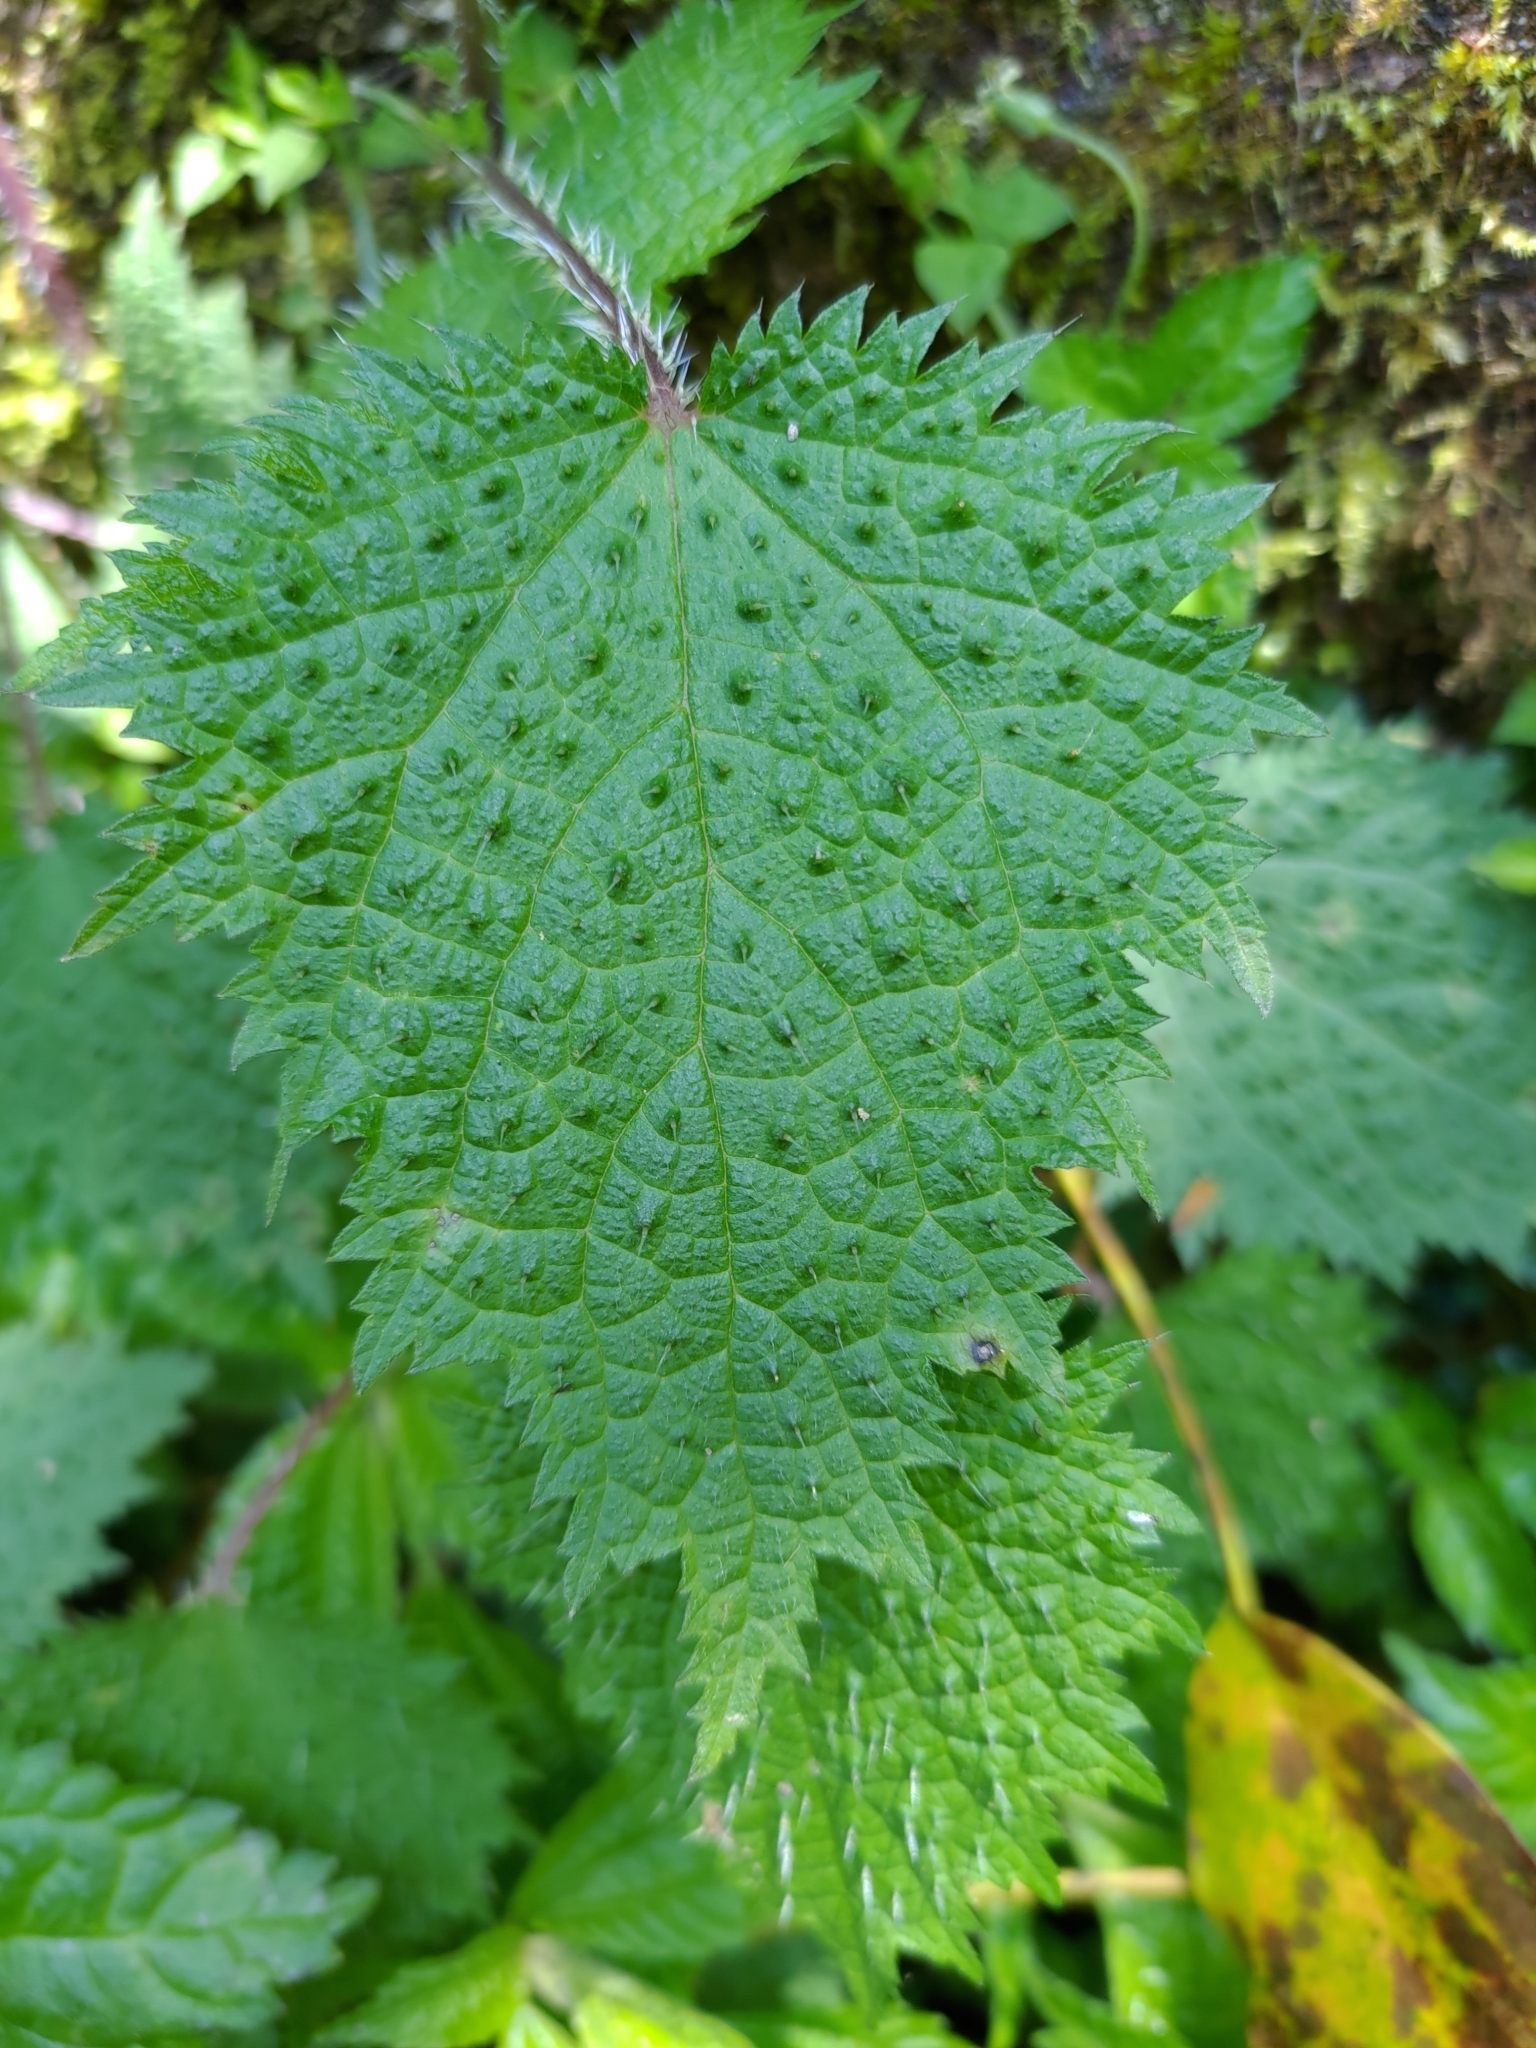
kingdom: Plantae
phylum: Tracheophyta
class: Magnoliopsida
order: Rosales
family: Urticaceae
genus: Urtica
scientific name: Urtica thunbergiana
